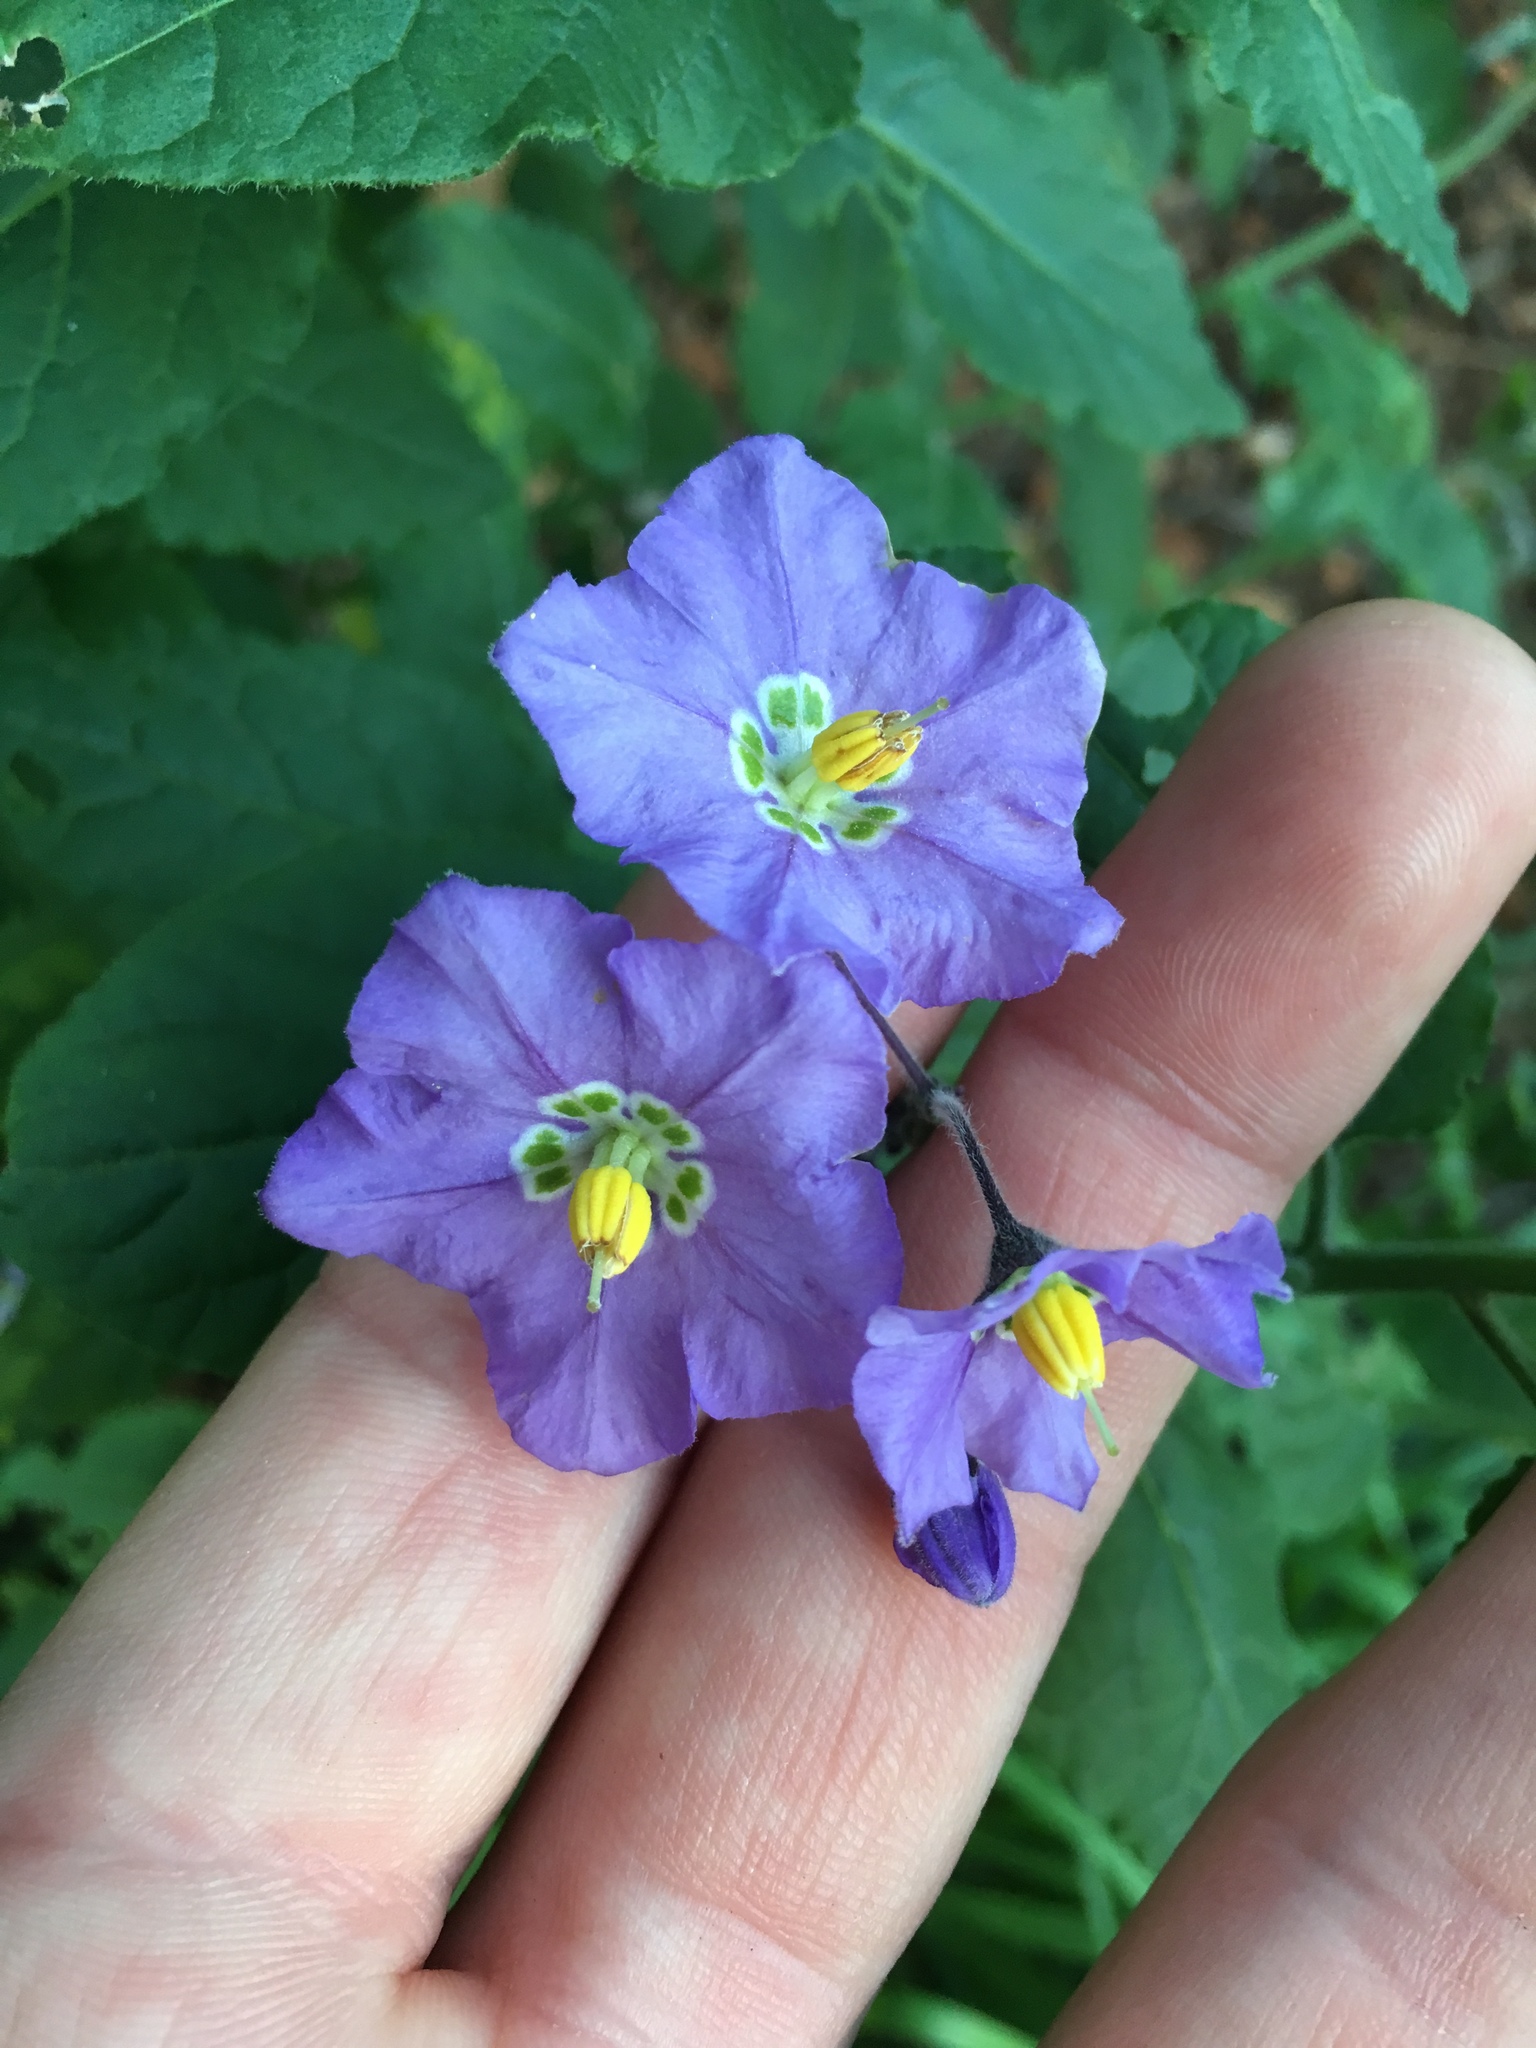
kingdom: Plantae
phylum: Tracheophyta
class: Magnoliopsida
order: Solanales
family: Solanaceae
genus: Solanum
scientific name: Solanum umbelliferum
